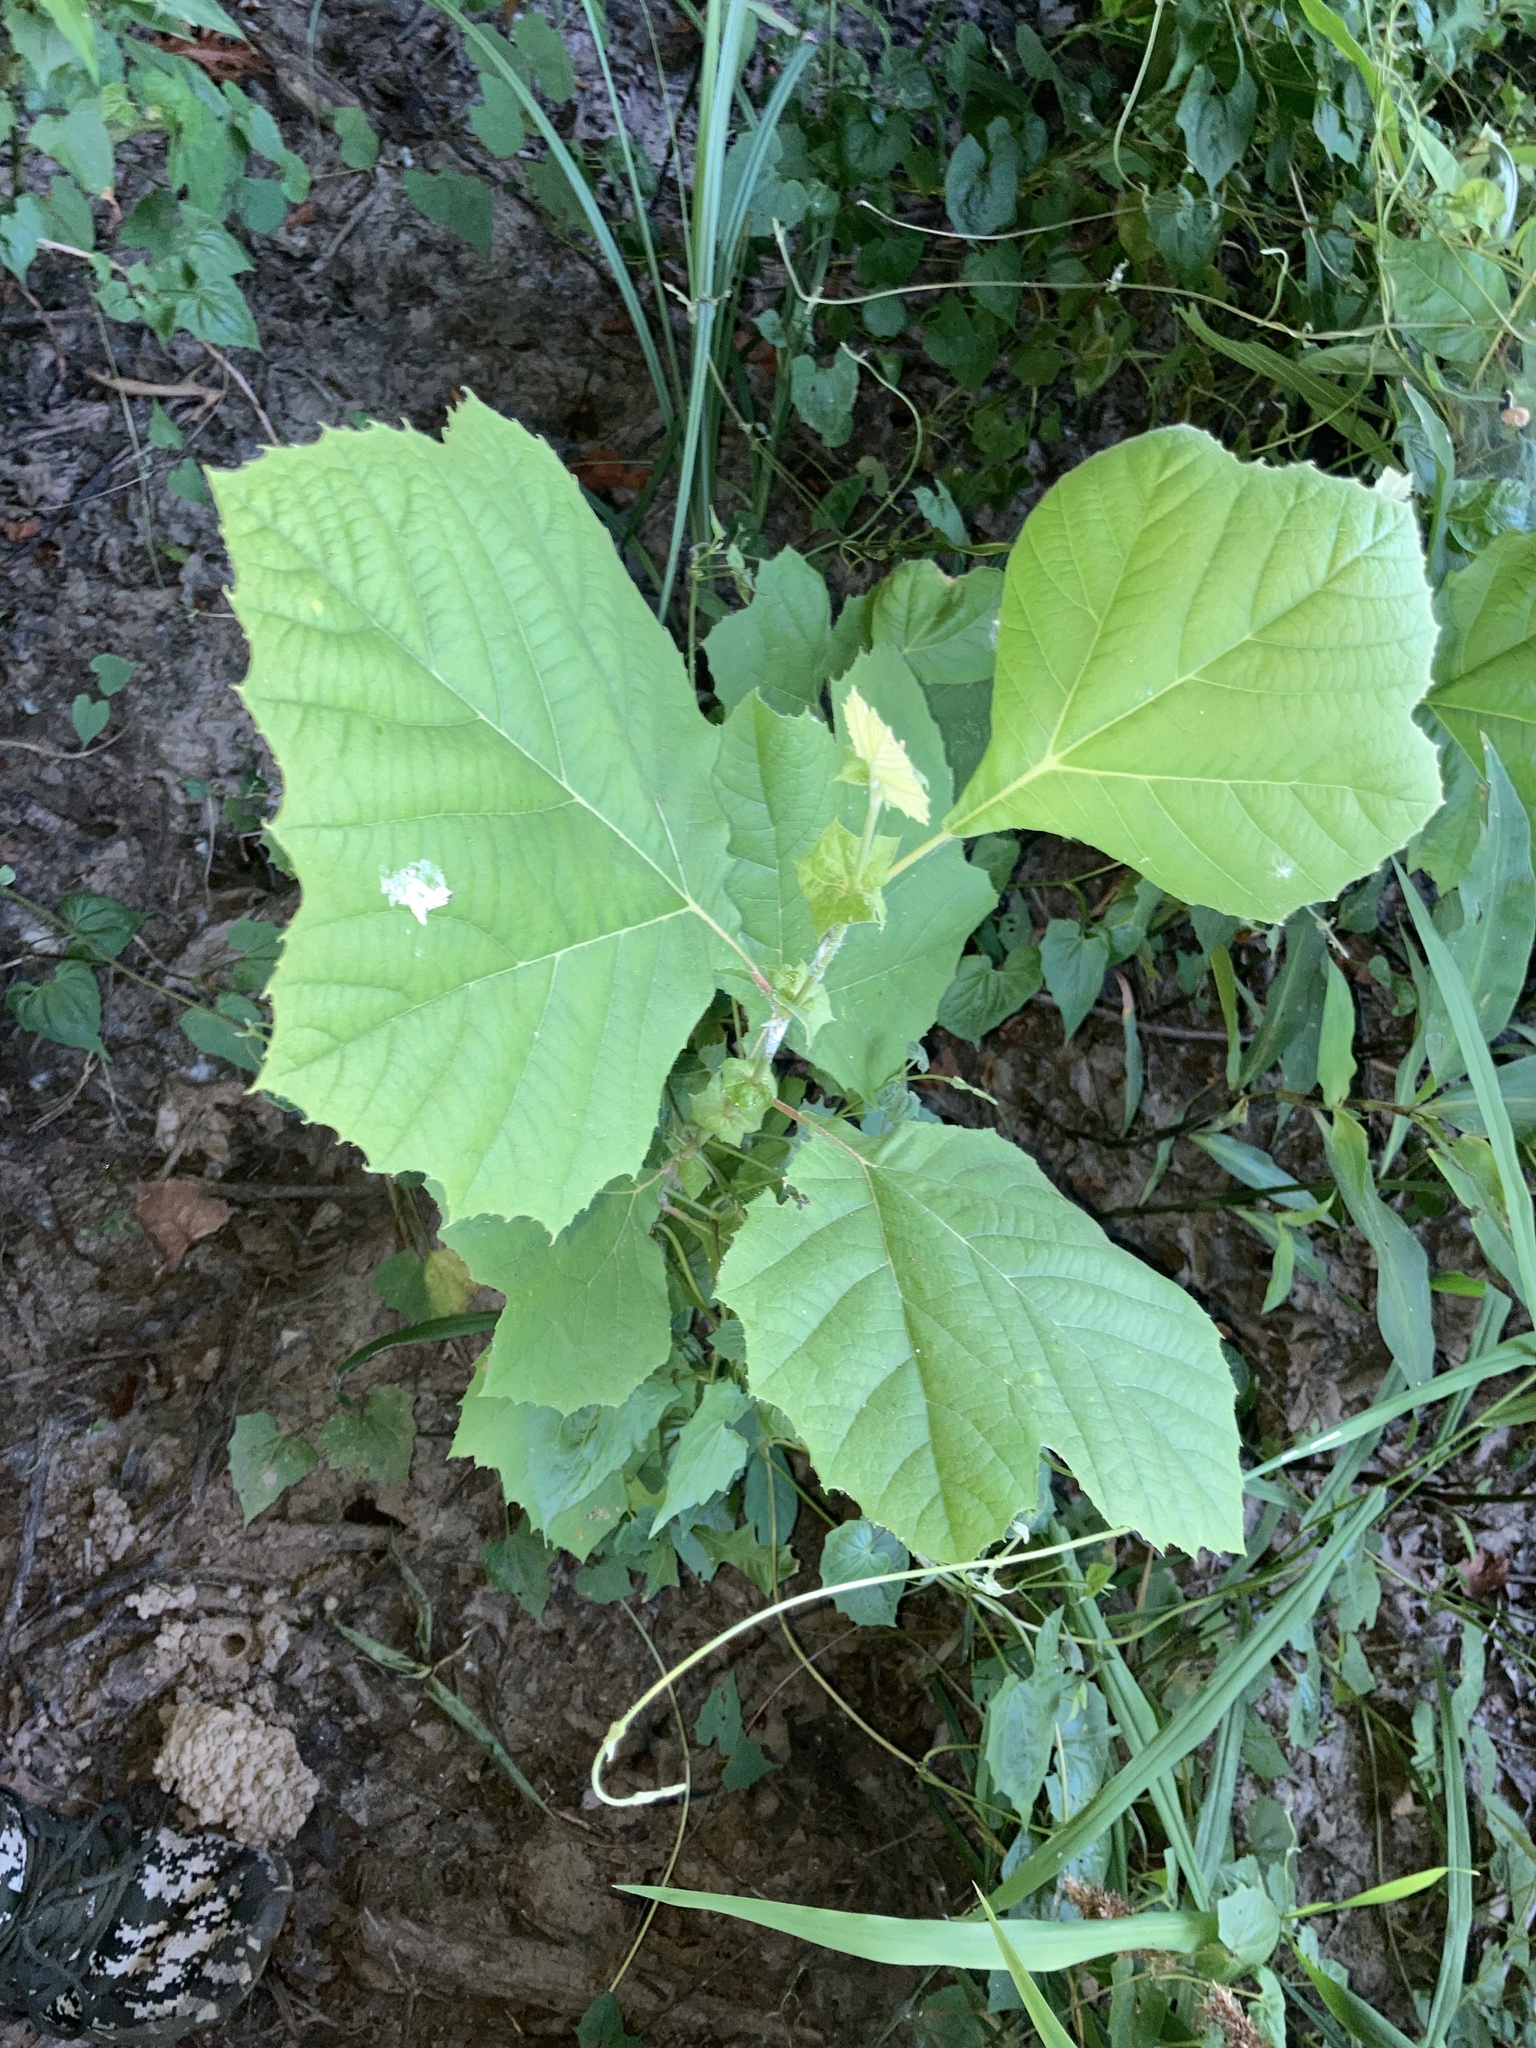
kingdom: Plantae
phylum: Tracheophyta
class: Magnoliopsida
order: Proteales
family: Platanaceae
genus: Platanus
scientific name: Platanus occidentalis
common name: American sycamore
